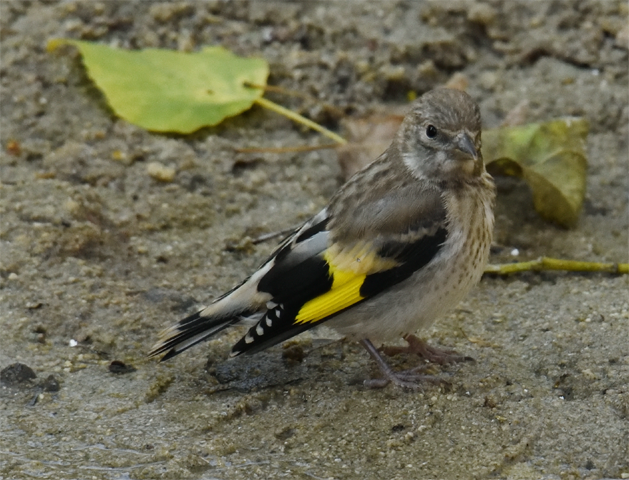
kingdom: Animalia
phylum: Chordata
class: Aves
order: Passeriformes
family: Fringillidae
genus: Carduelis
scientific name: Carduelis carduelis
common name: European goldfinch
